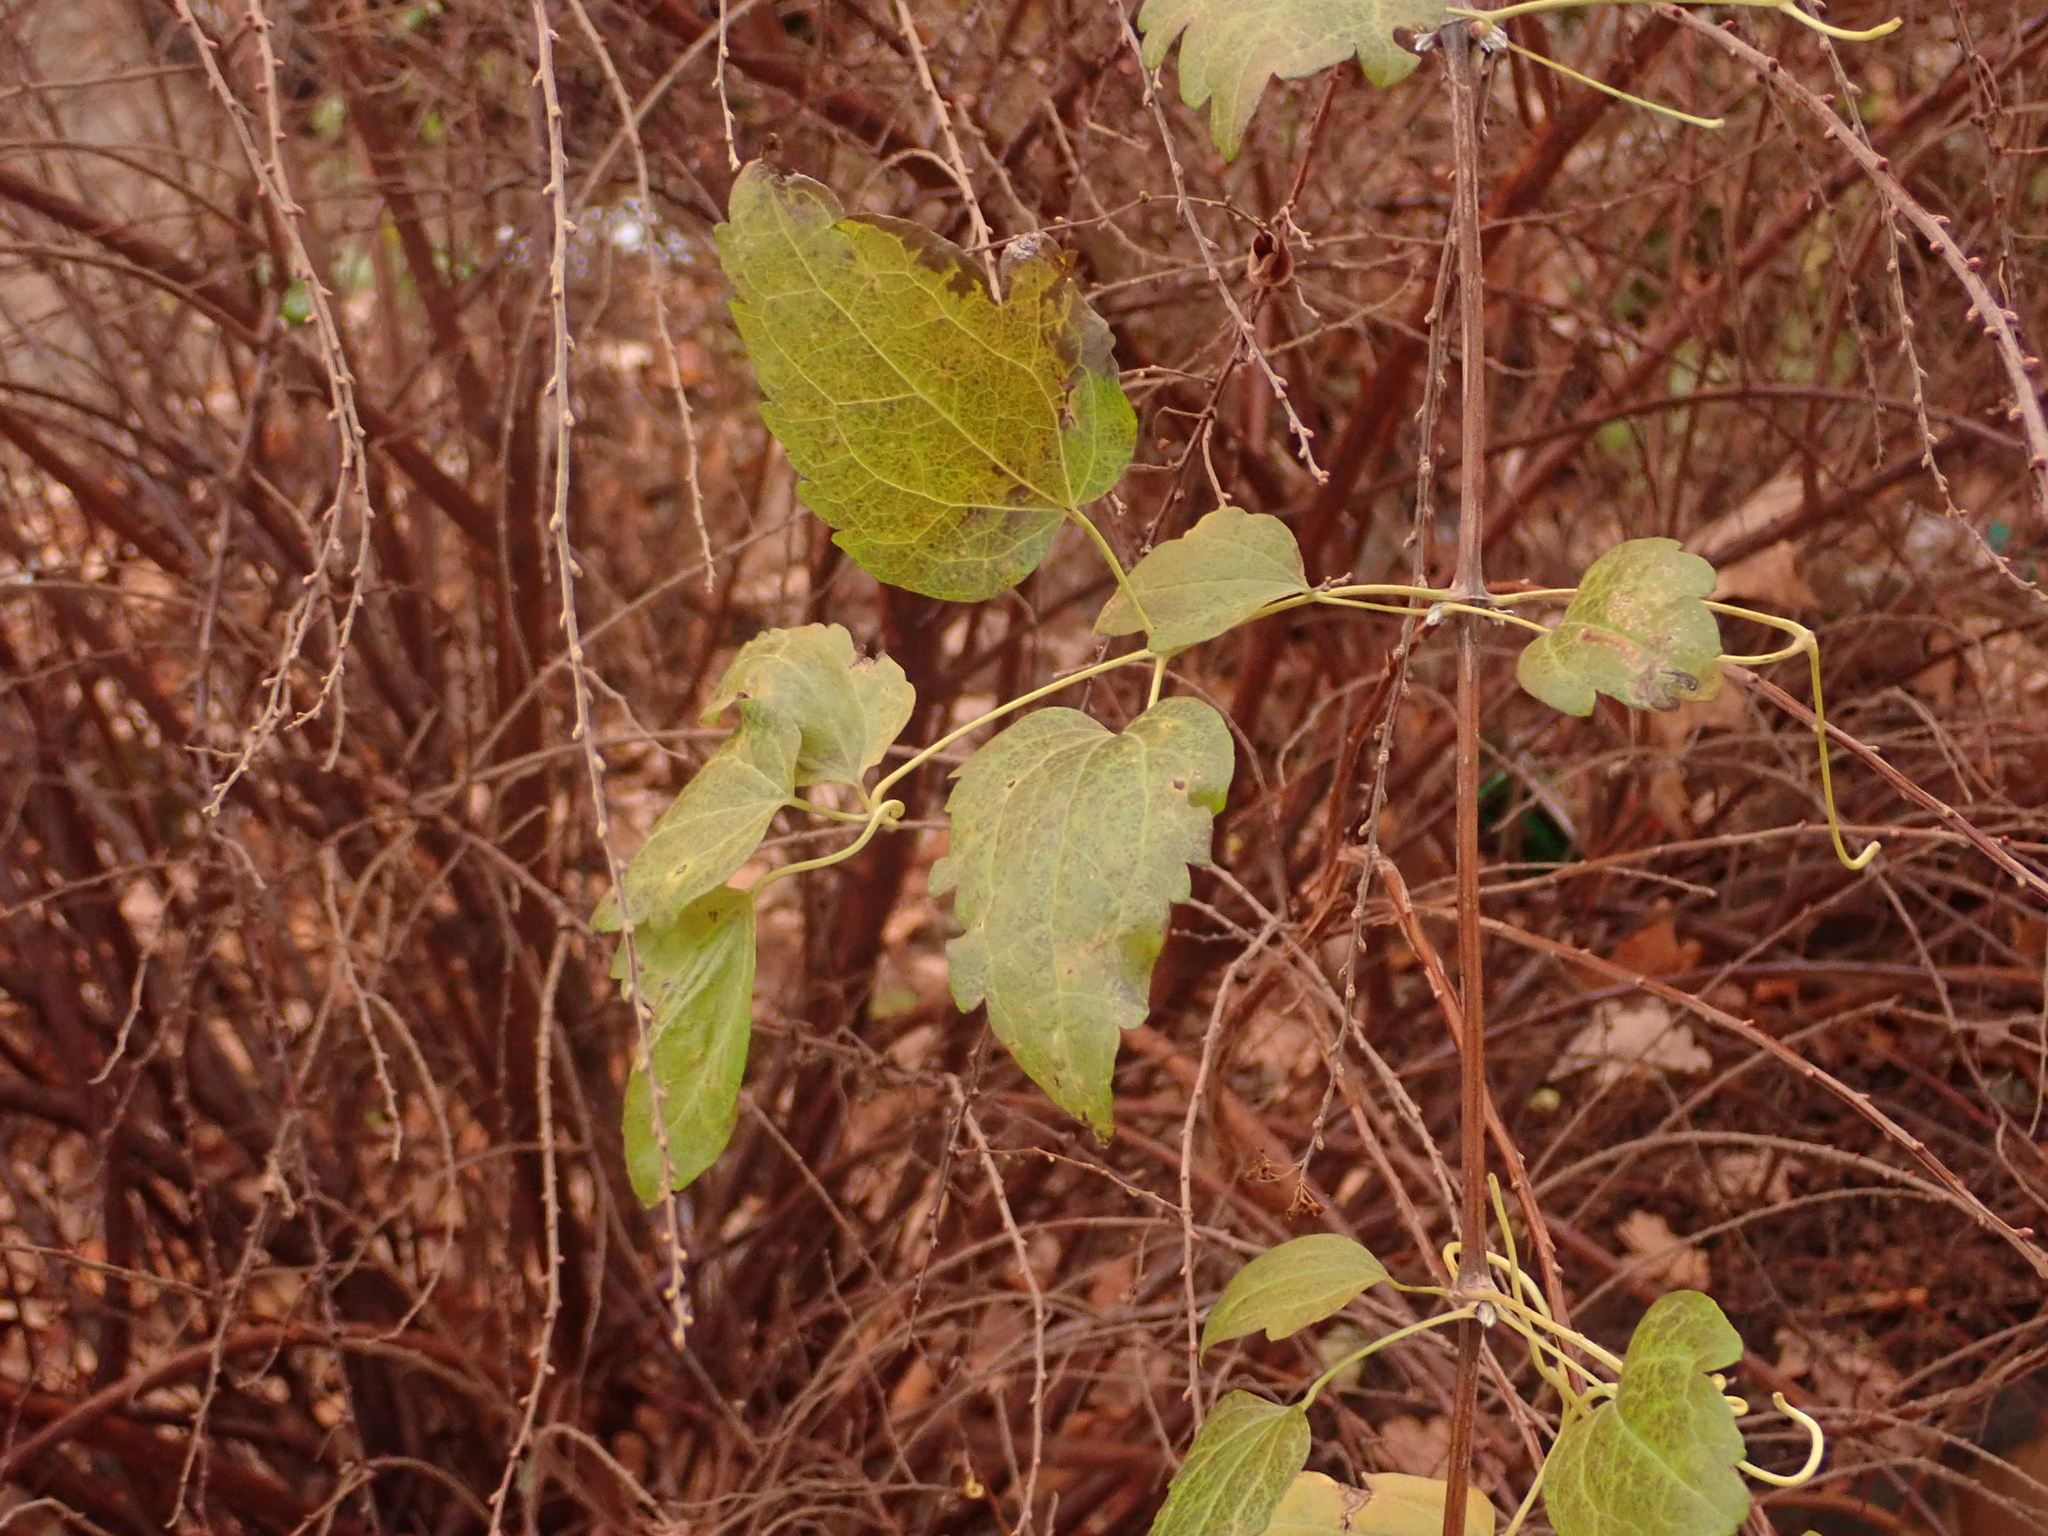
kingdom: Plantae
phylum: Tracheophyta
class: Magnoliopsida
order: Ranunculales
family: Ranunculaceae
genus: Clematis
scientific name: Clematis vitalba
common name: Evergreen clematis
